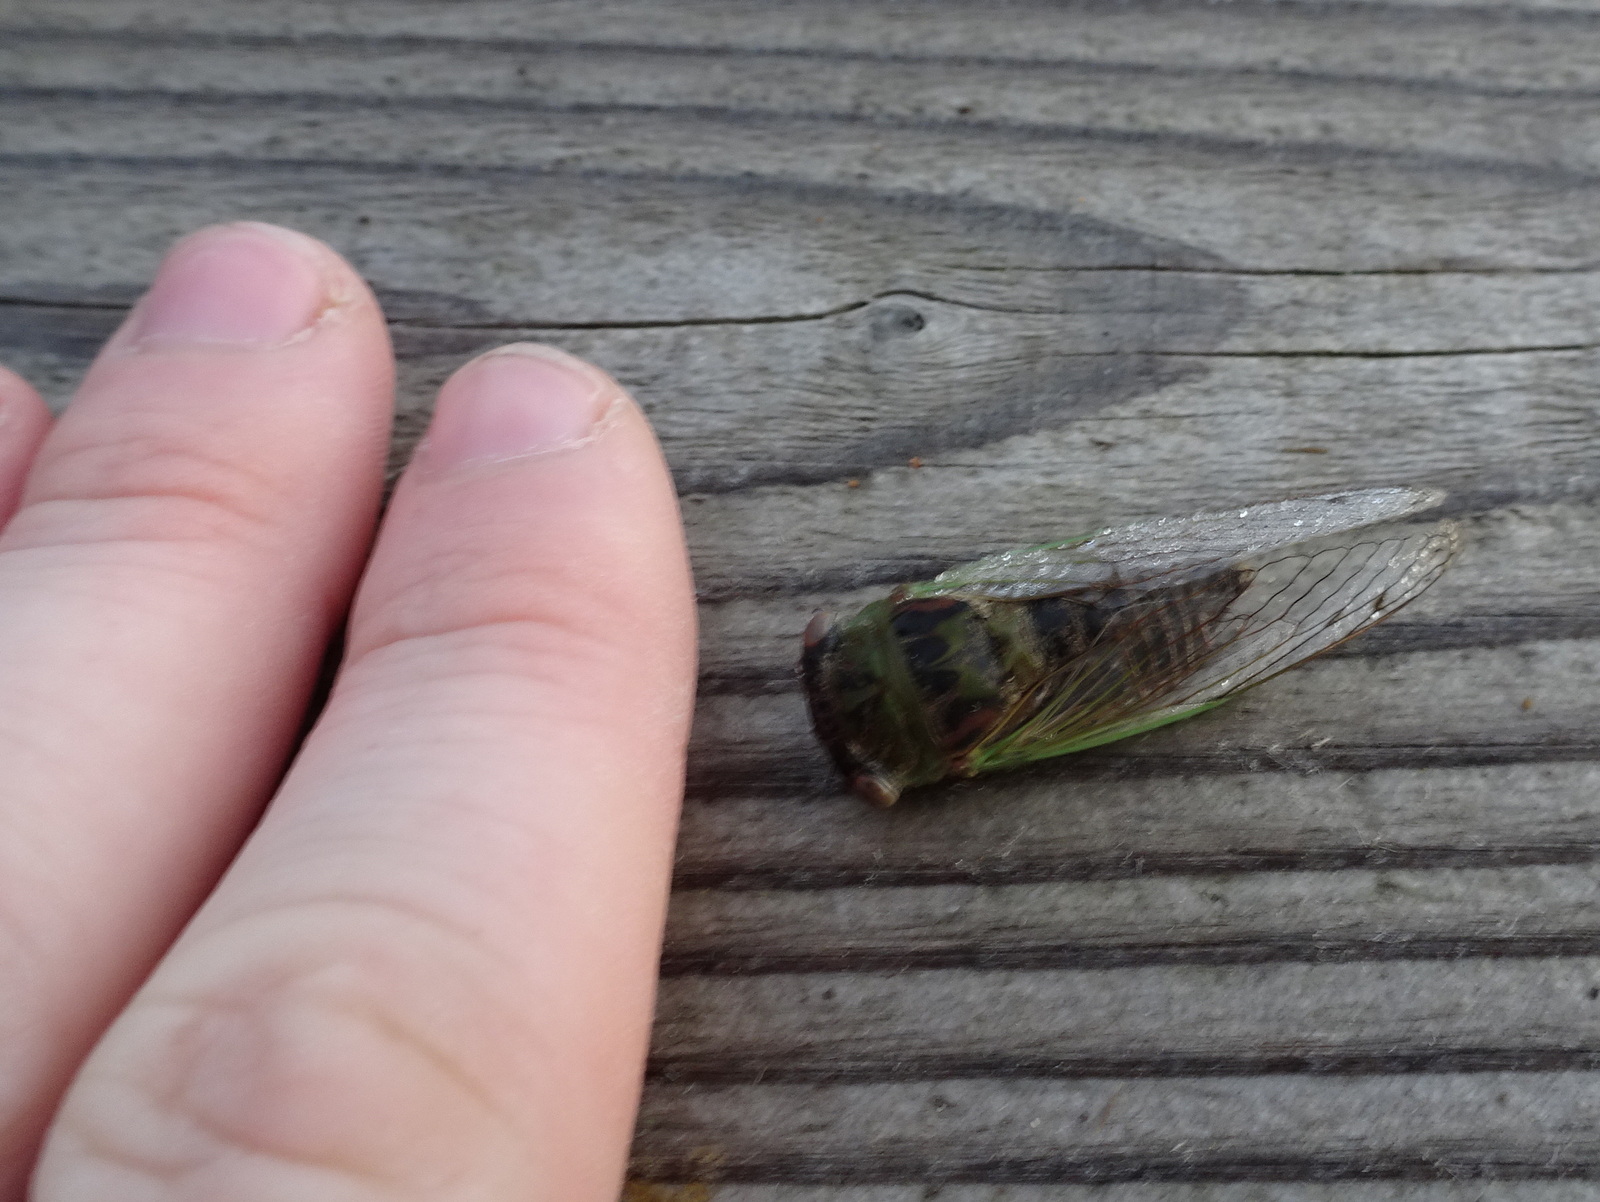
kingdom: Animalia
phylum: Arthropoda
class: Insecta
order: Hemiptera
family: Cicadidae
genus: Neotibicen
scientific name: Neotibicen aurifer
